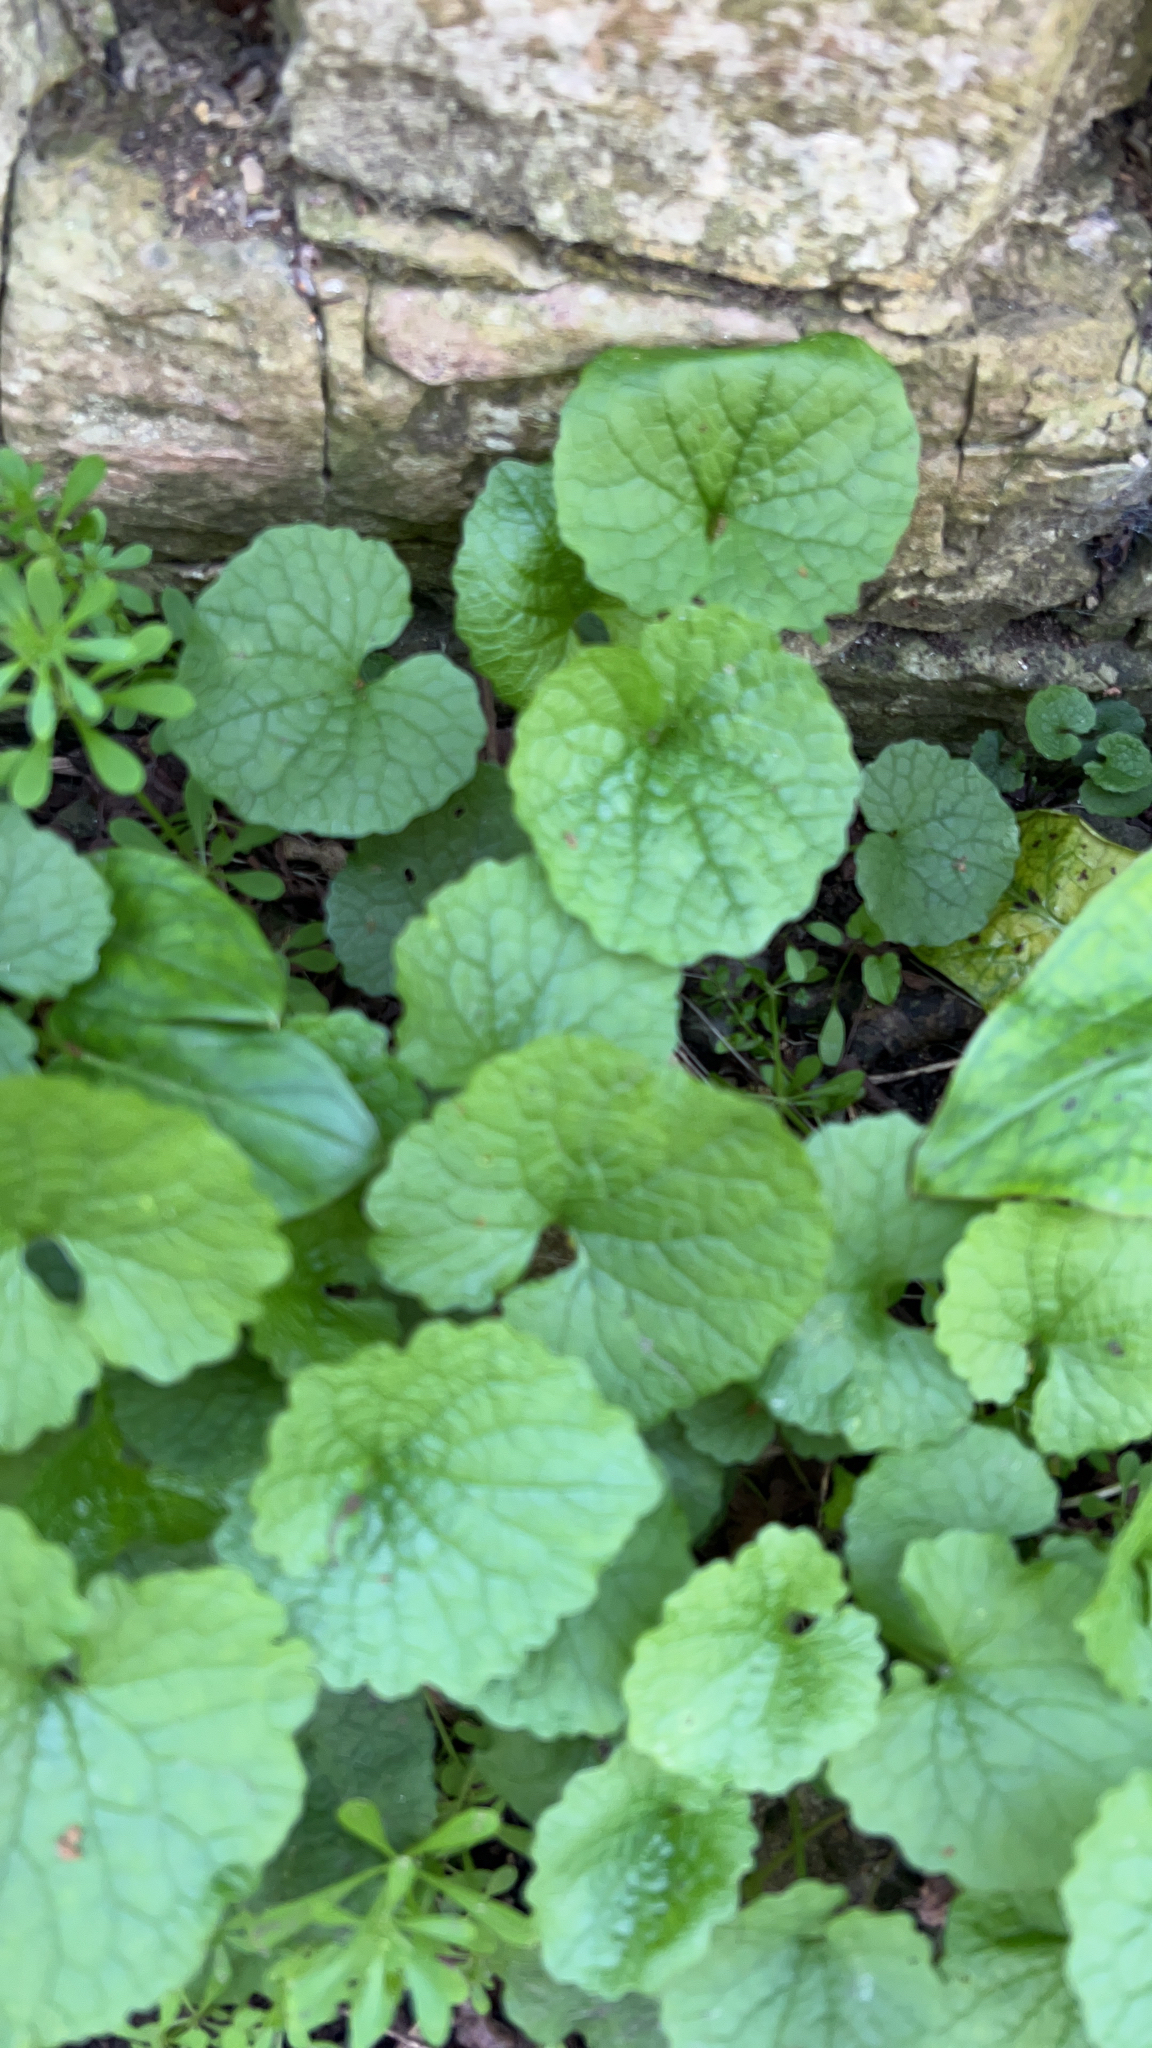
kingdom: Plantae
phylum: Tracheophyta
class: Magnoliopsida
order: Brassicales
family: Brassicaceae
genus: Alliaria
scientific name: Alliaria petiolata
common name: Garlic mustard
